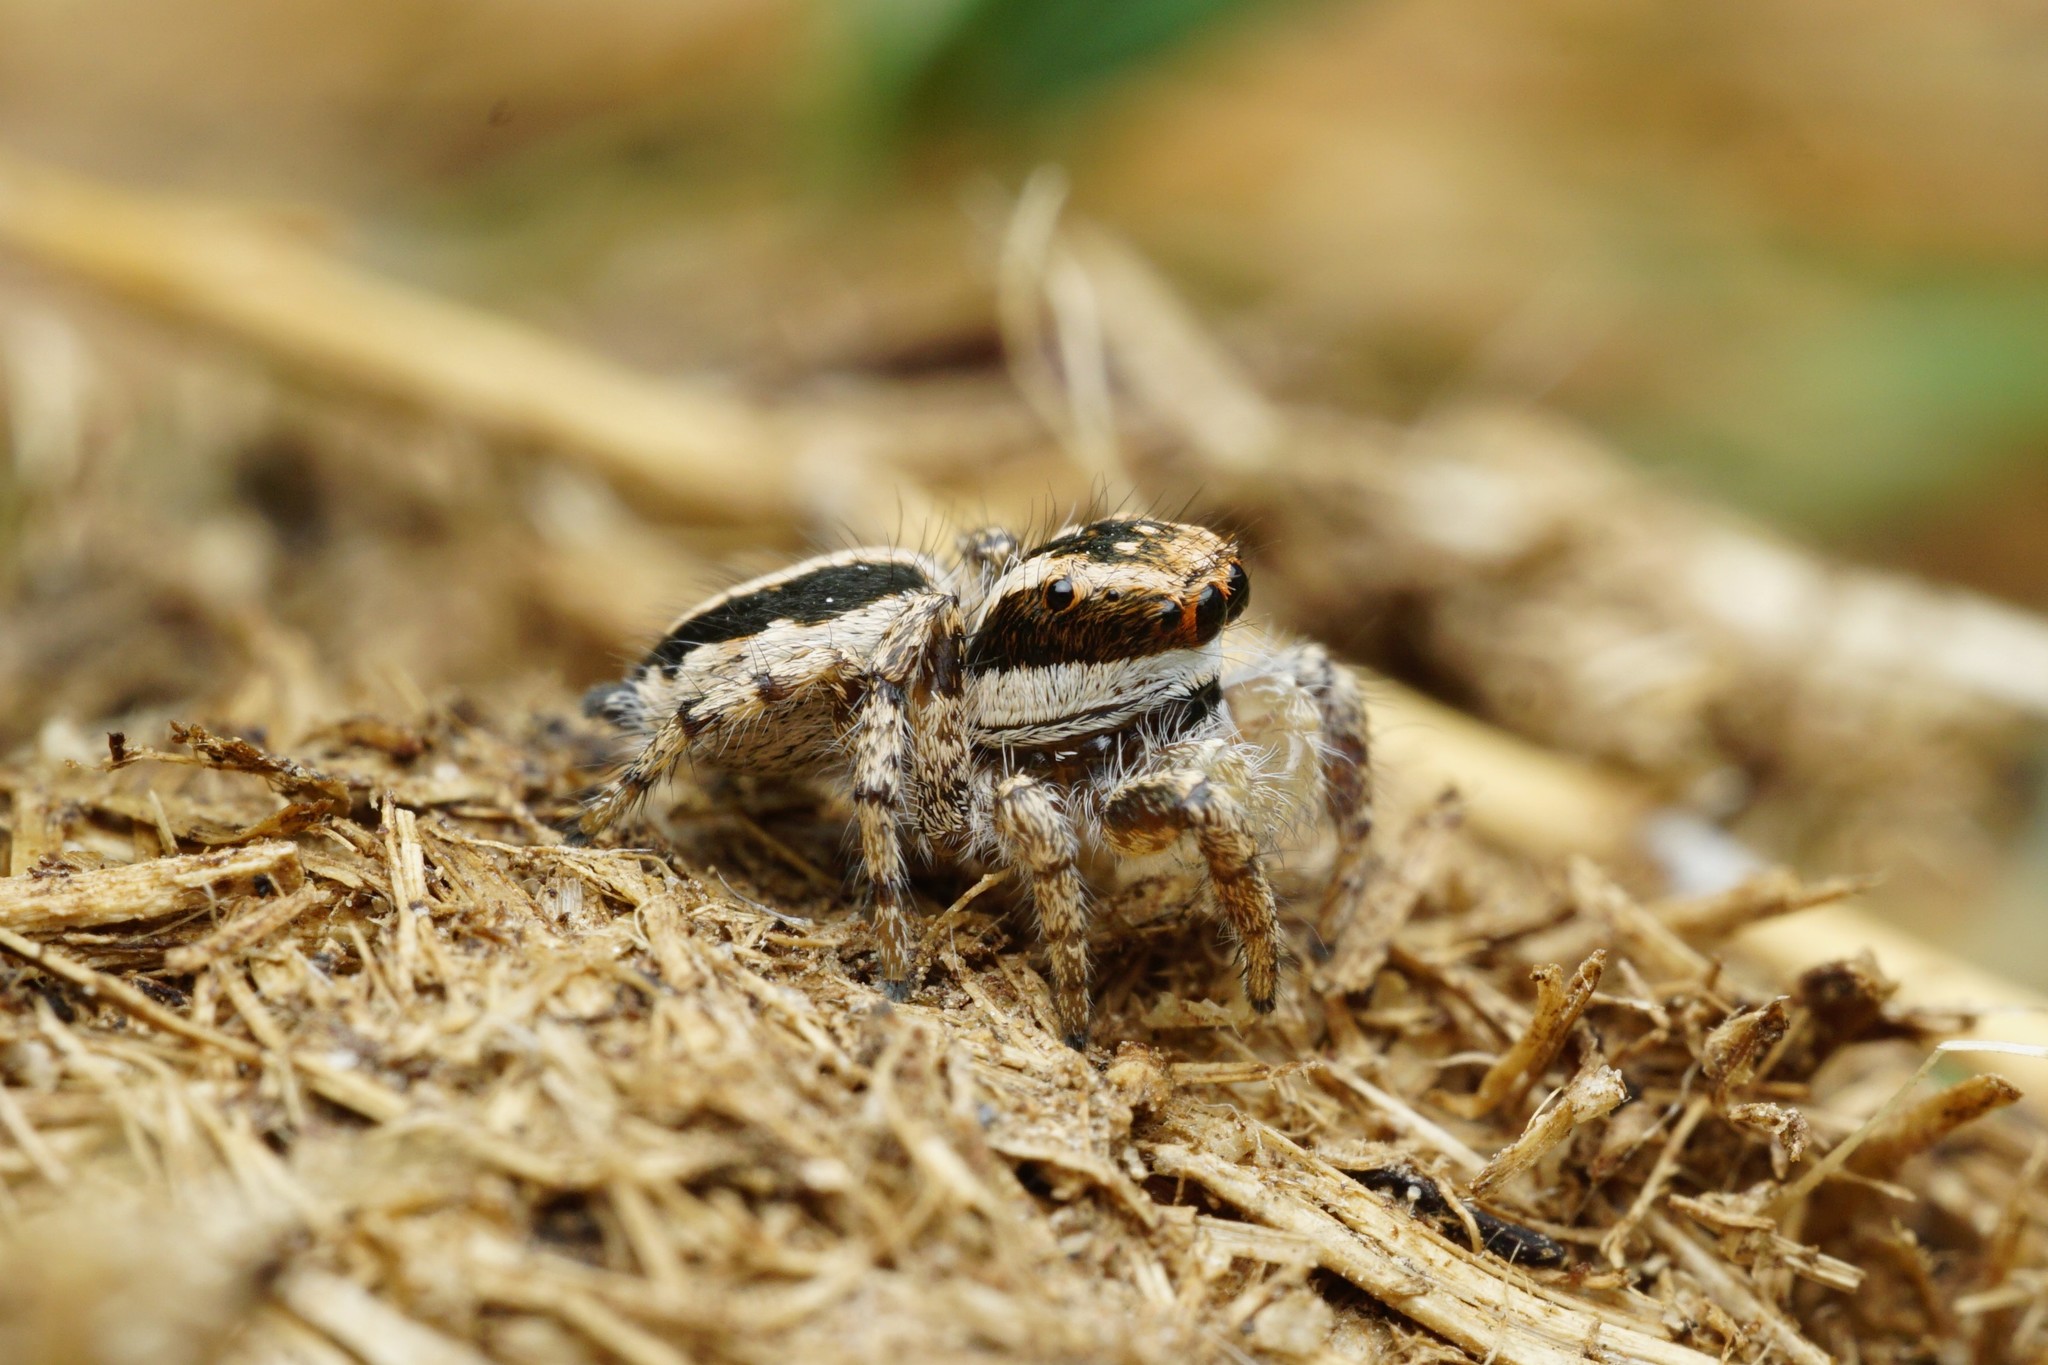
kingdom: Animalia
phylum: Arthropoda
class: Arachnida
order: Araneae
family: Salticidae
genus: Habronattus
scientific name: Habronattus conjunctus
